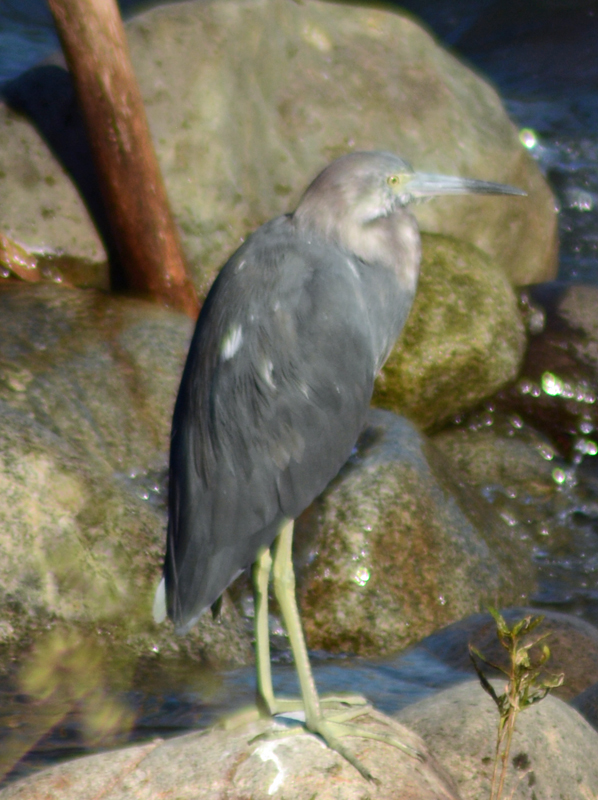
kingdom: Animalia
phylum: Chordata
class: Aves
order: Pelecaniformes
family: Ardeidae
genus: Egretta
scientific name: Egretta caerulea
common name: Little blue heron
